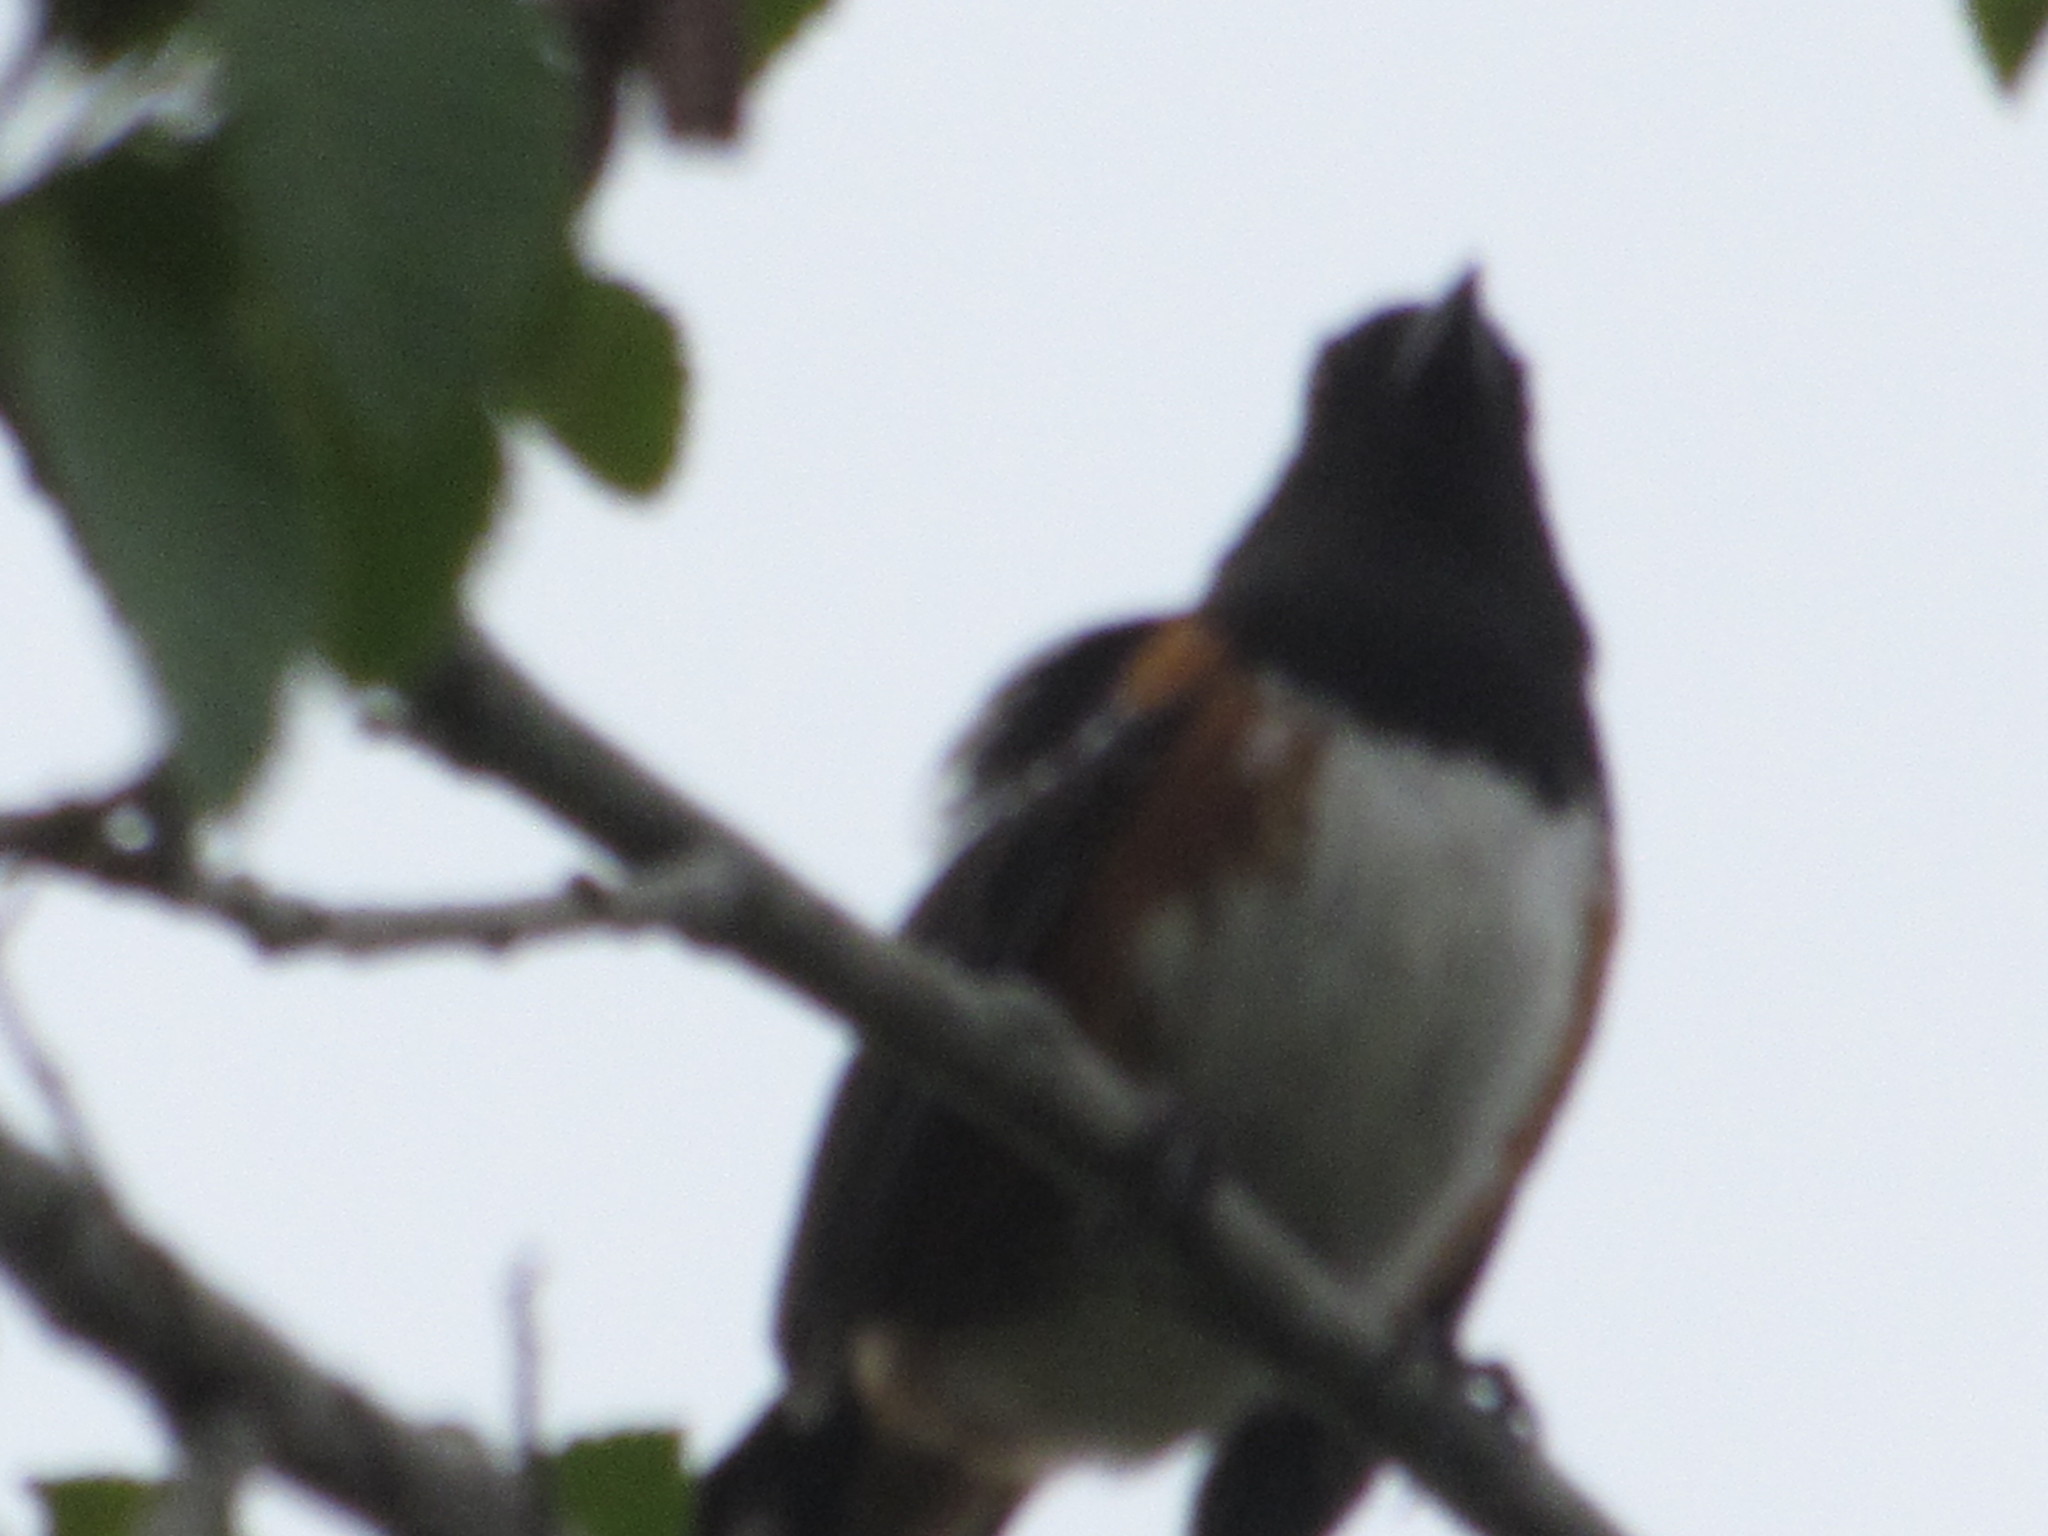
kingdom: Animalia
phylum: Chordata
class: Aves
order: Passeriformes
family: Passerellidae
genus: Pipilo
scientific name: Pipilo maculatus
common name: Spotted towhee
